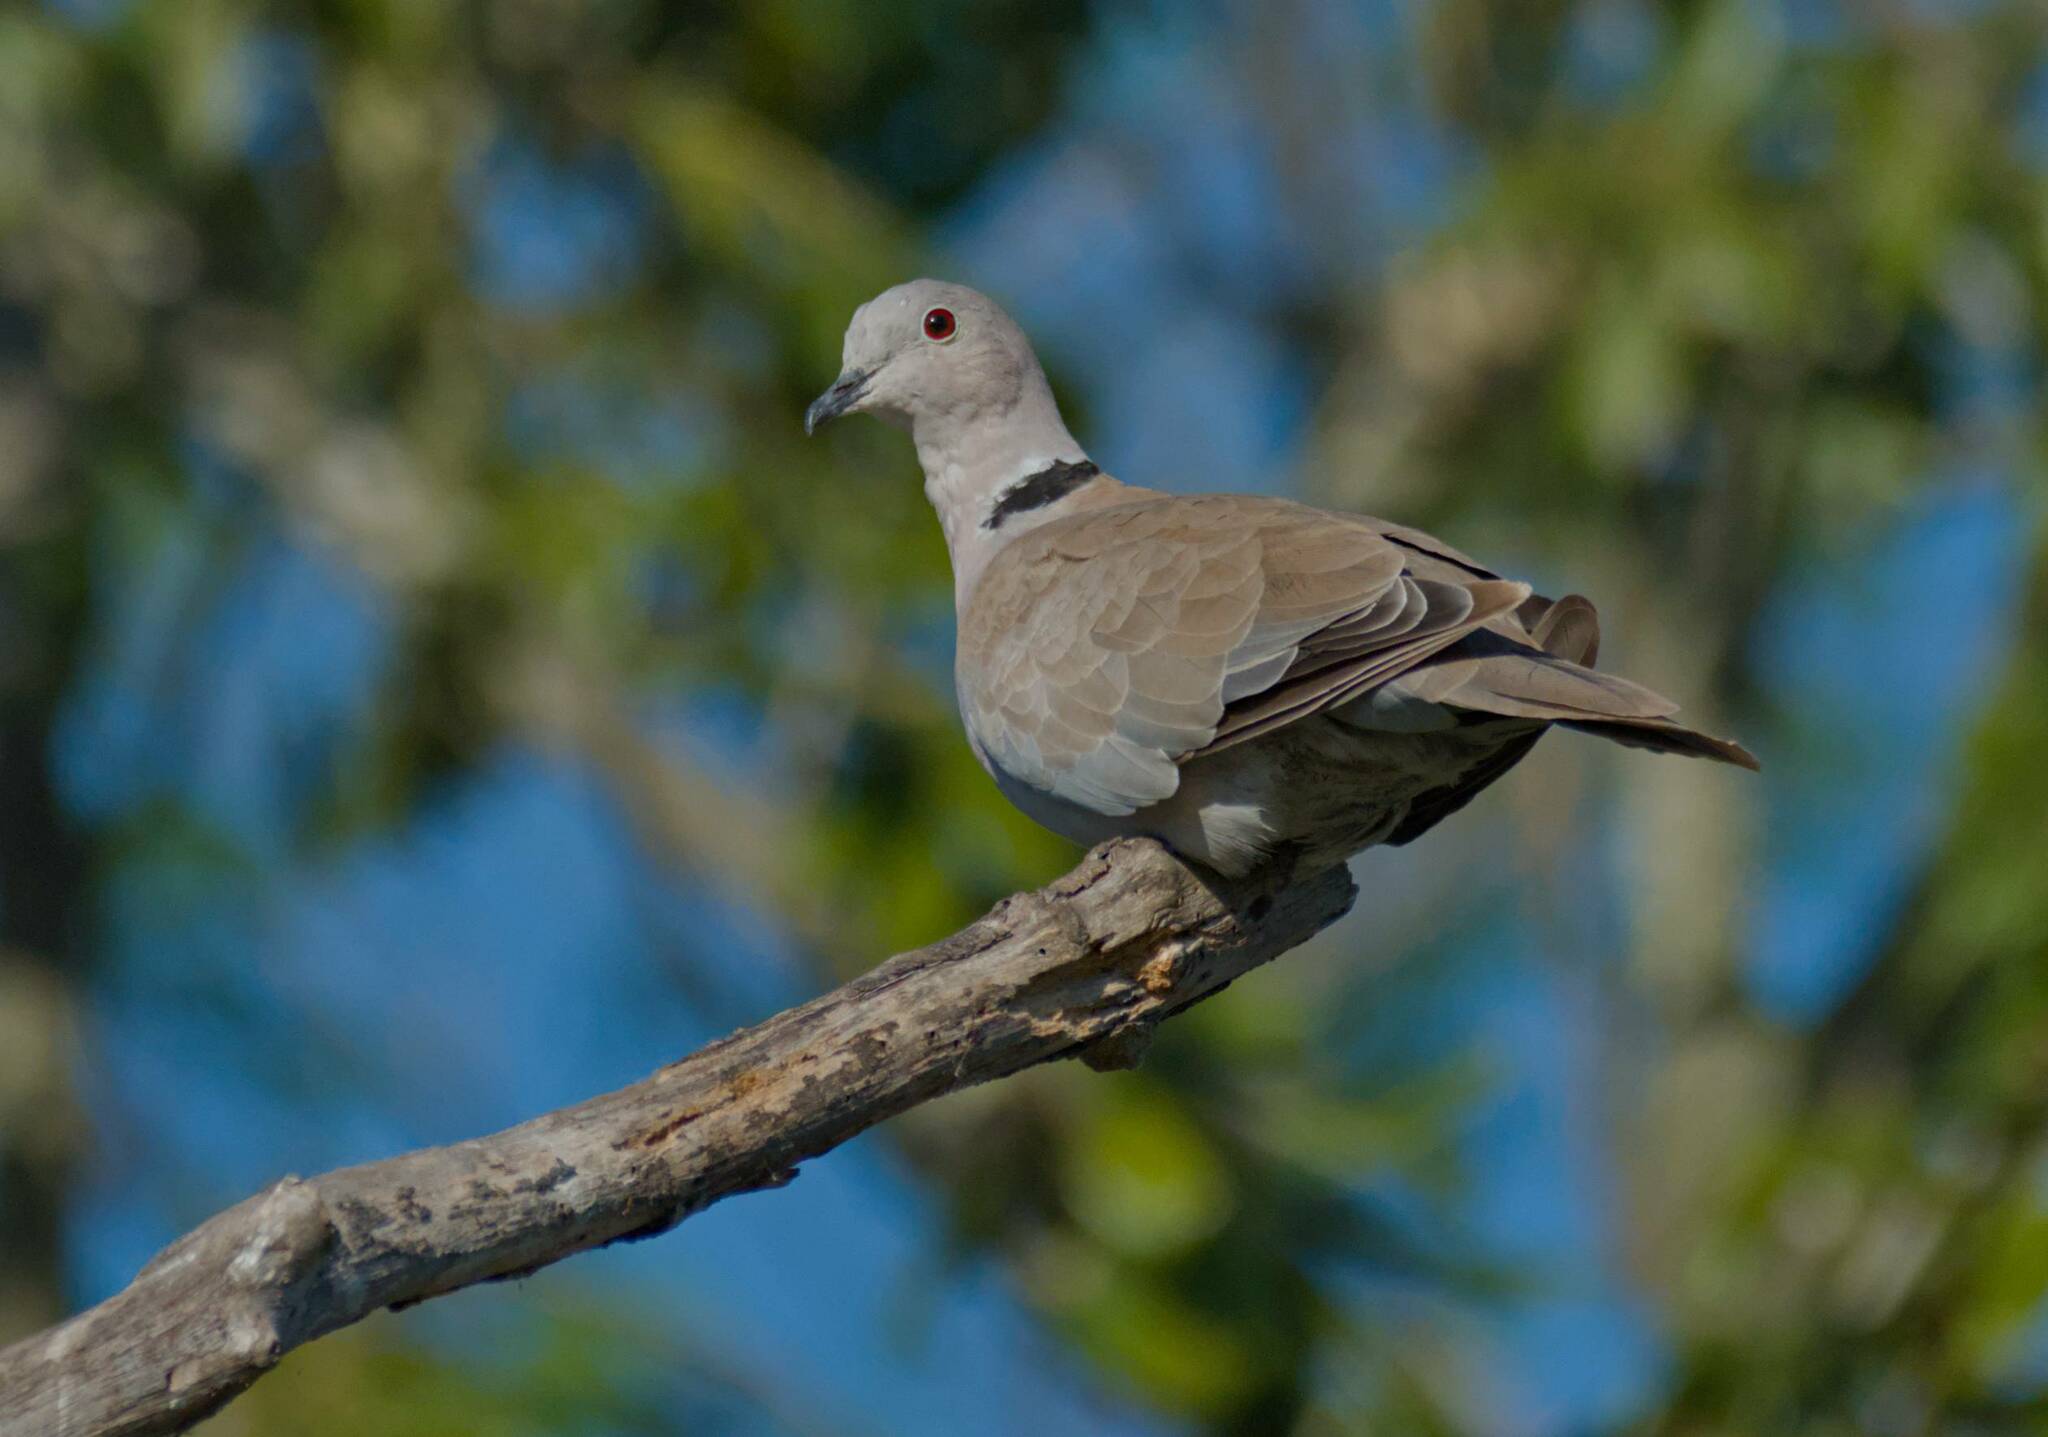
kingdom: Animalia
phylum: Chordata
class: Aves
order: Columbiformes
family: Columbidae
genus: Streptopelia
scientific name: Streptopelia decaocto
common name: Eurasian collared dove
